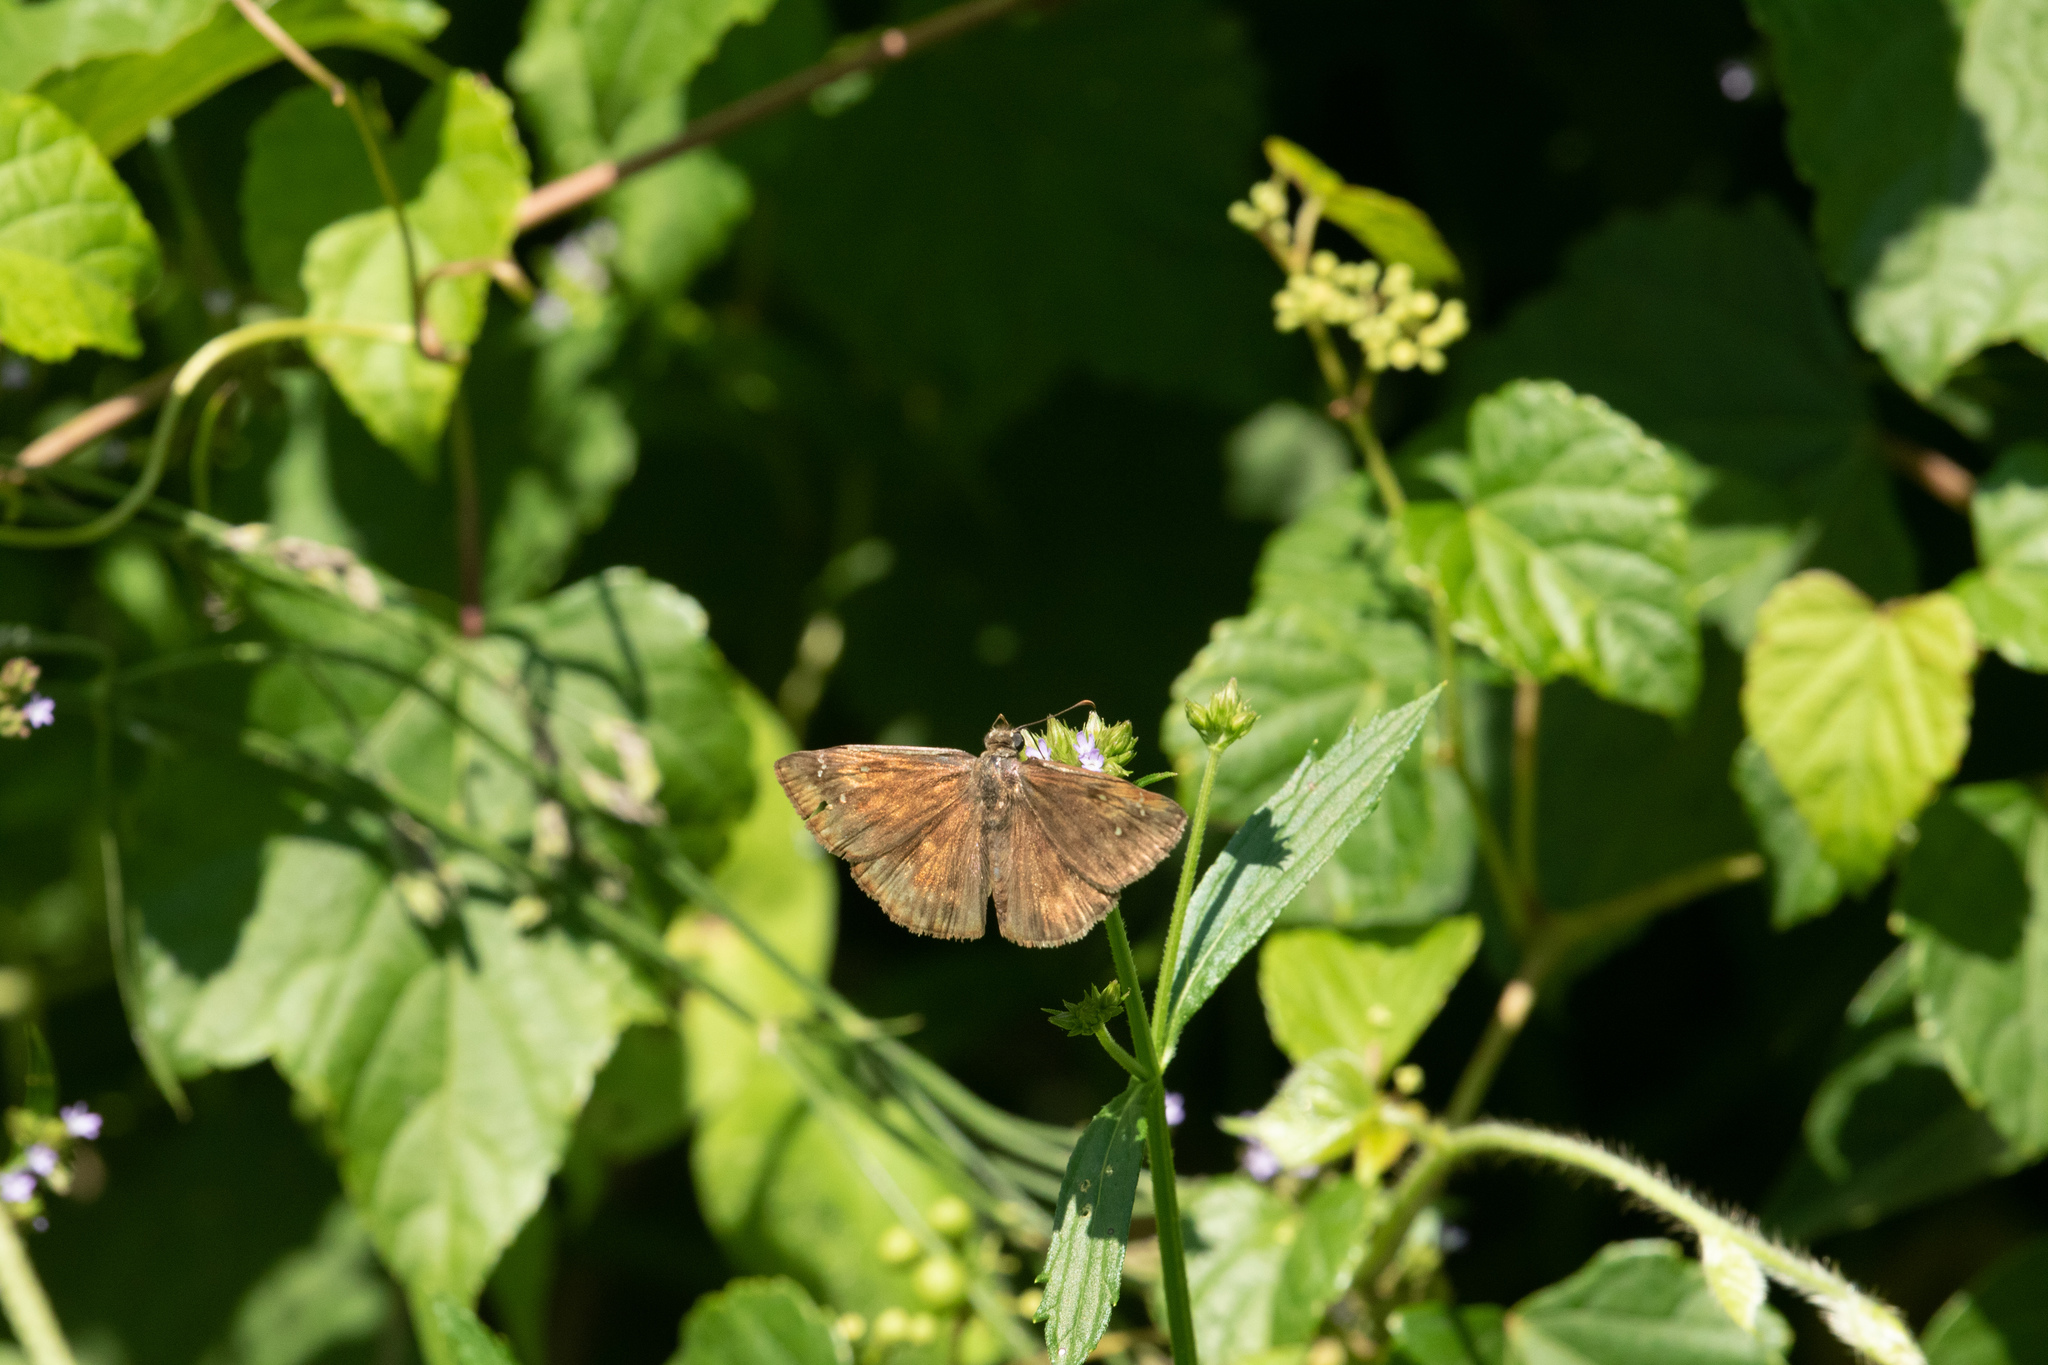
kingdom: Animalia
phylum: Arthropoda
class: Insecta
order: Lepidoptera
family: Hesperiidae
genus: Erynnis
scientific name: Erynnis horatius
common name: Horace's duskywing
